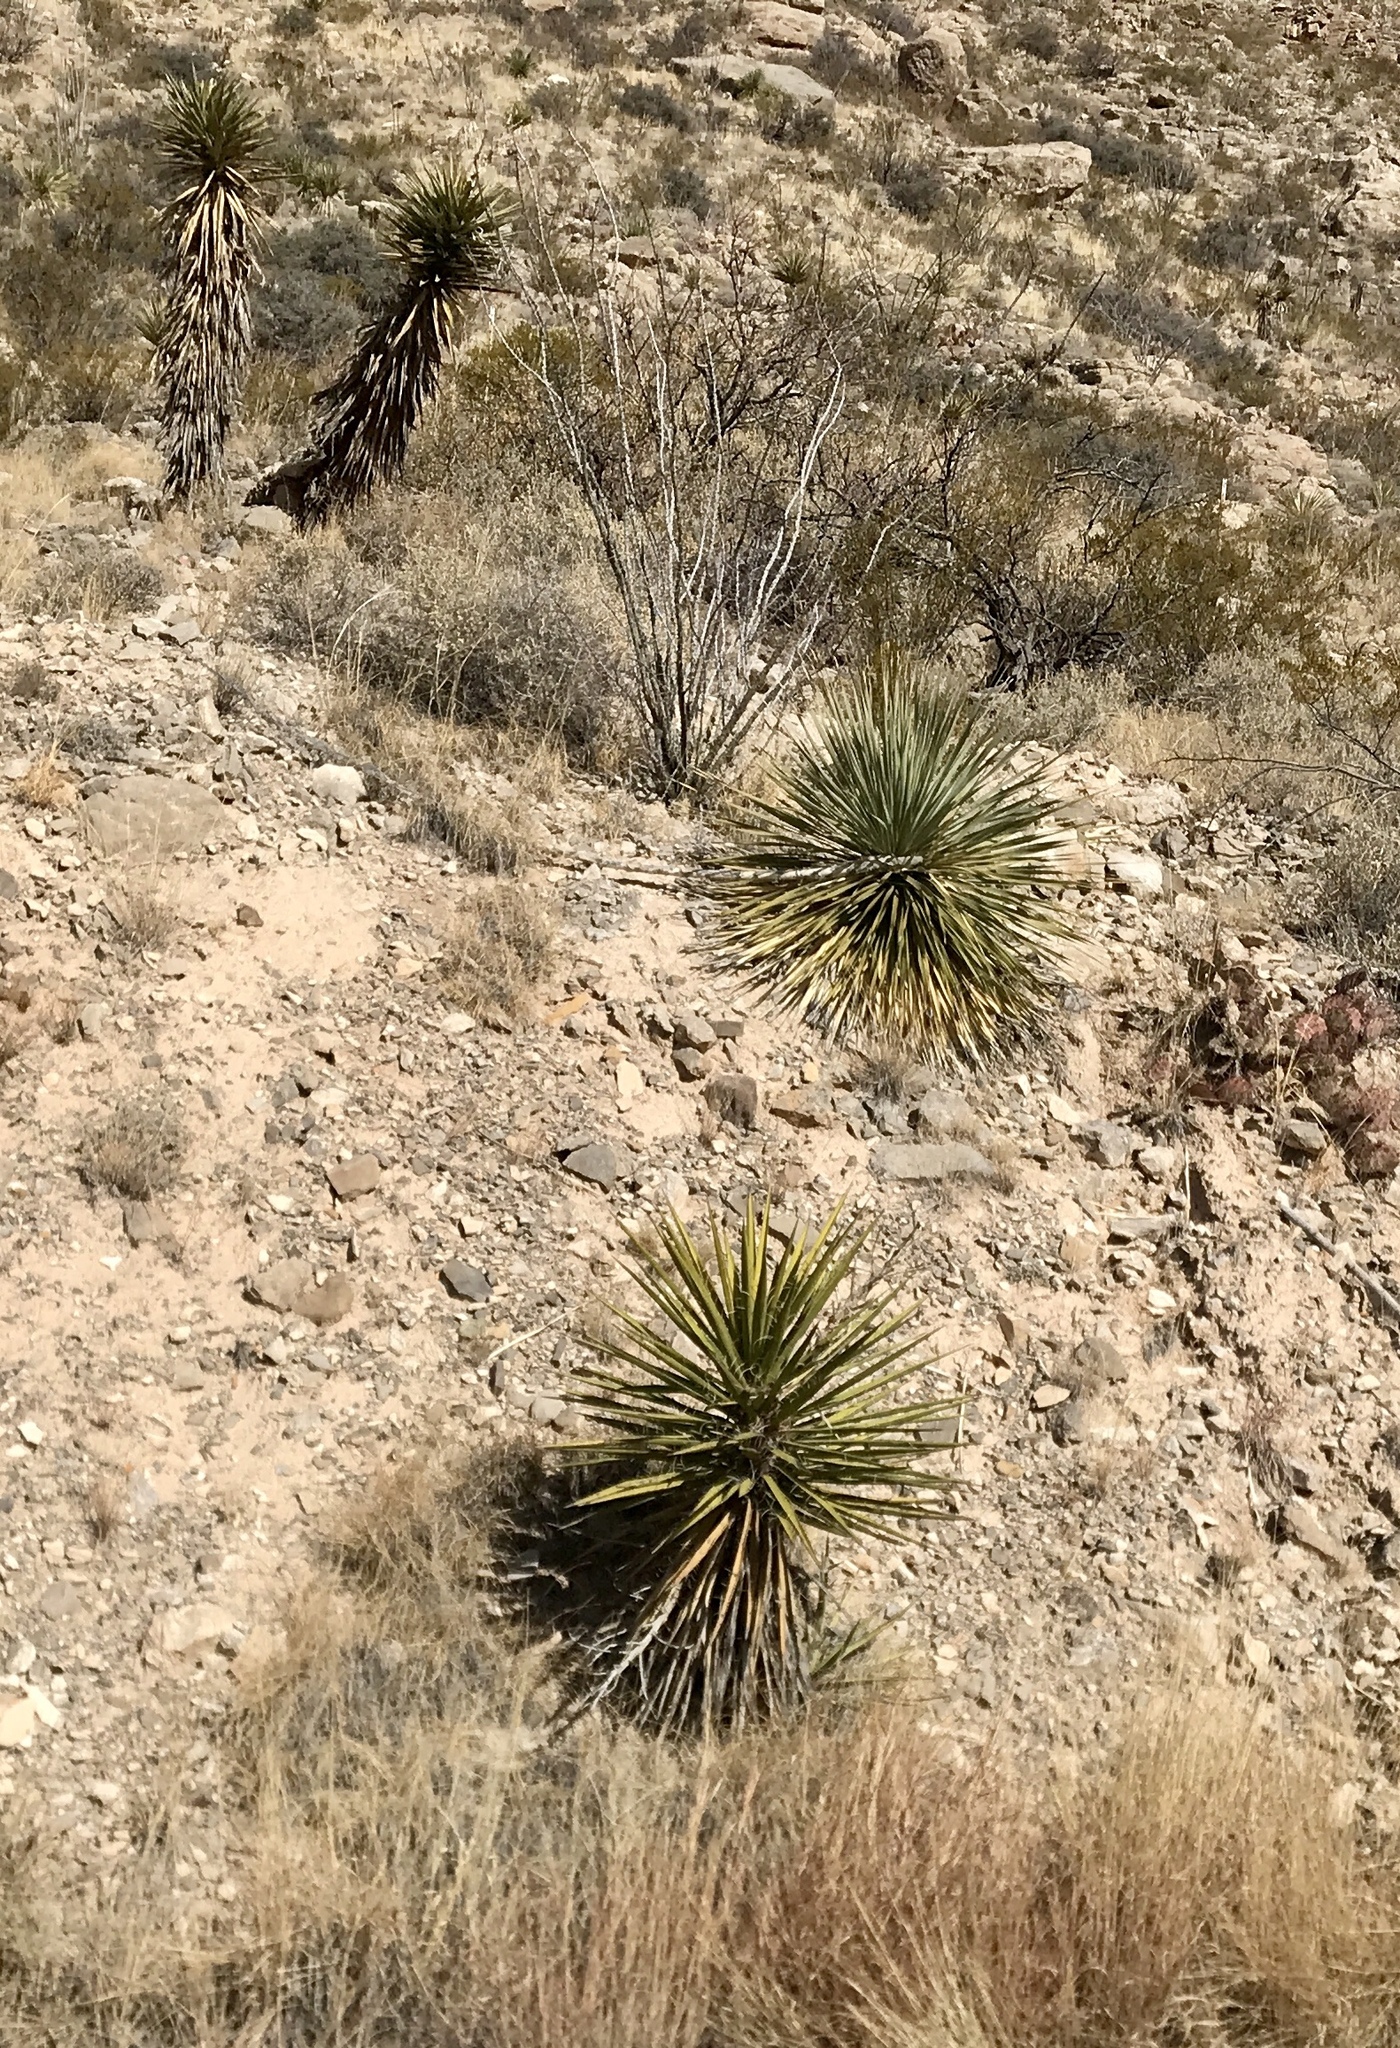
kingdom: Plantae
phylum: Tracheophyta
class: Liliopsida
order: Asparagales
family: Asparagaceae
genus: Yucca
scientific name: Yucca treculiana
